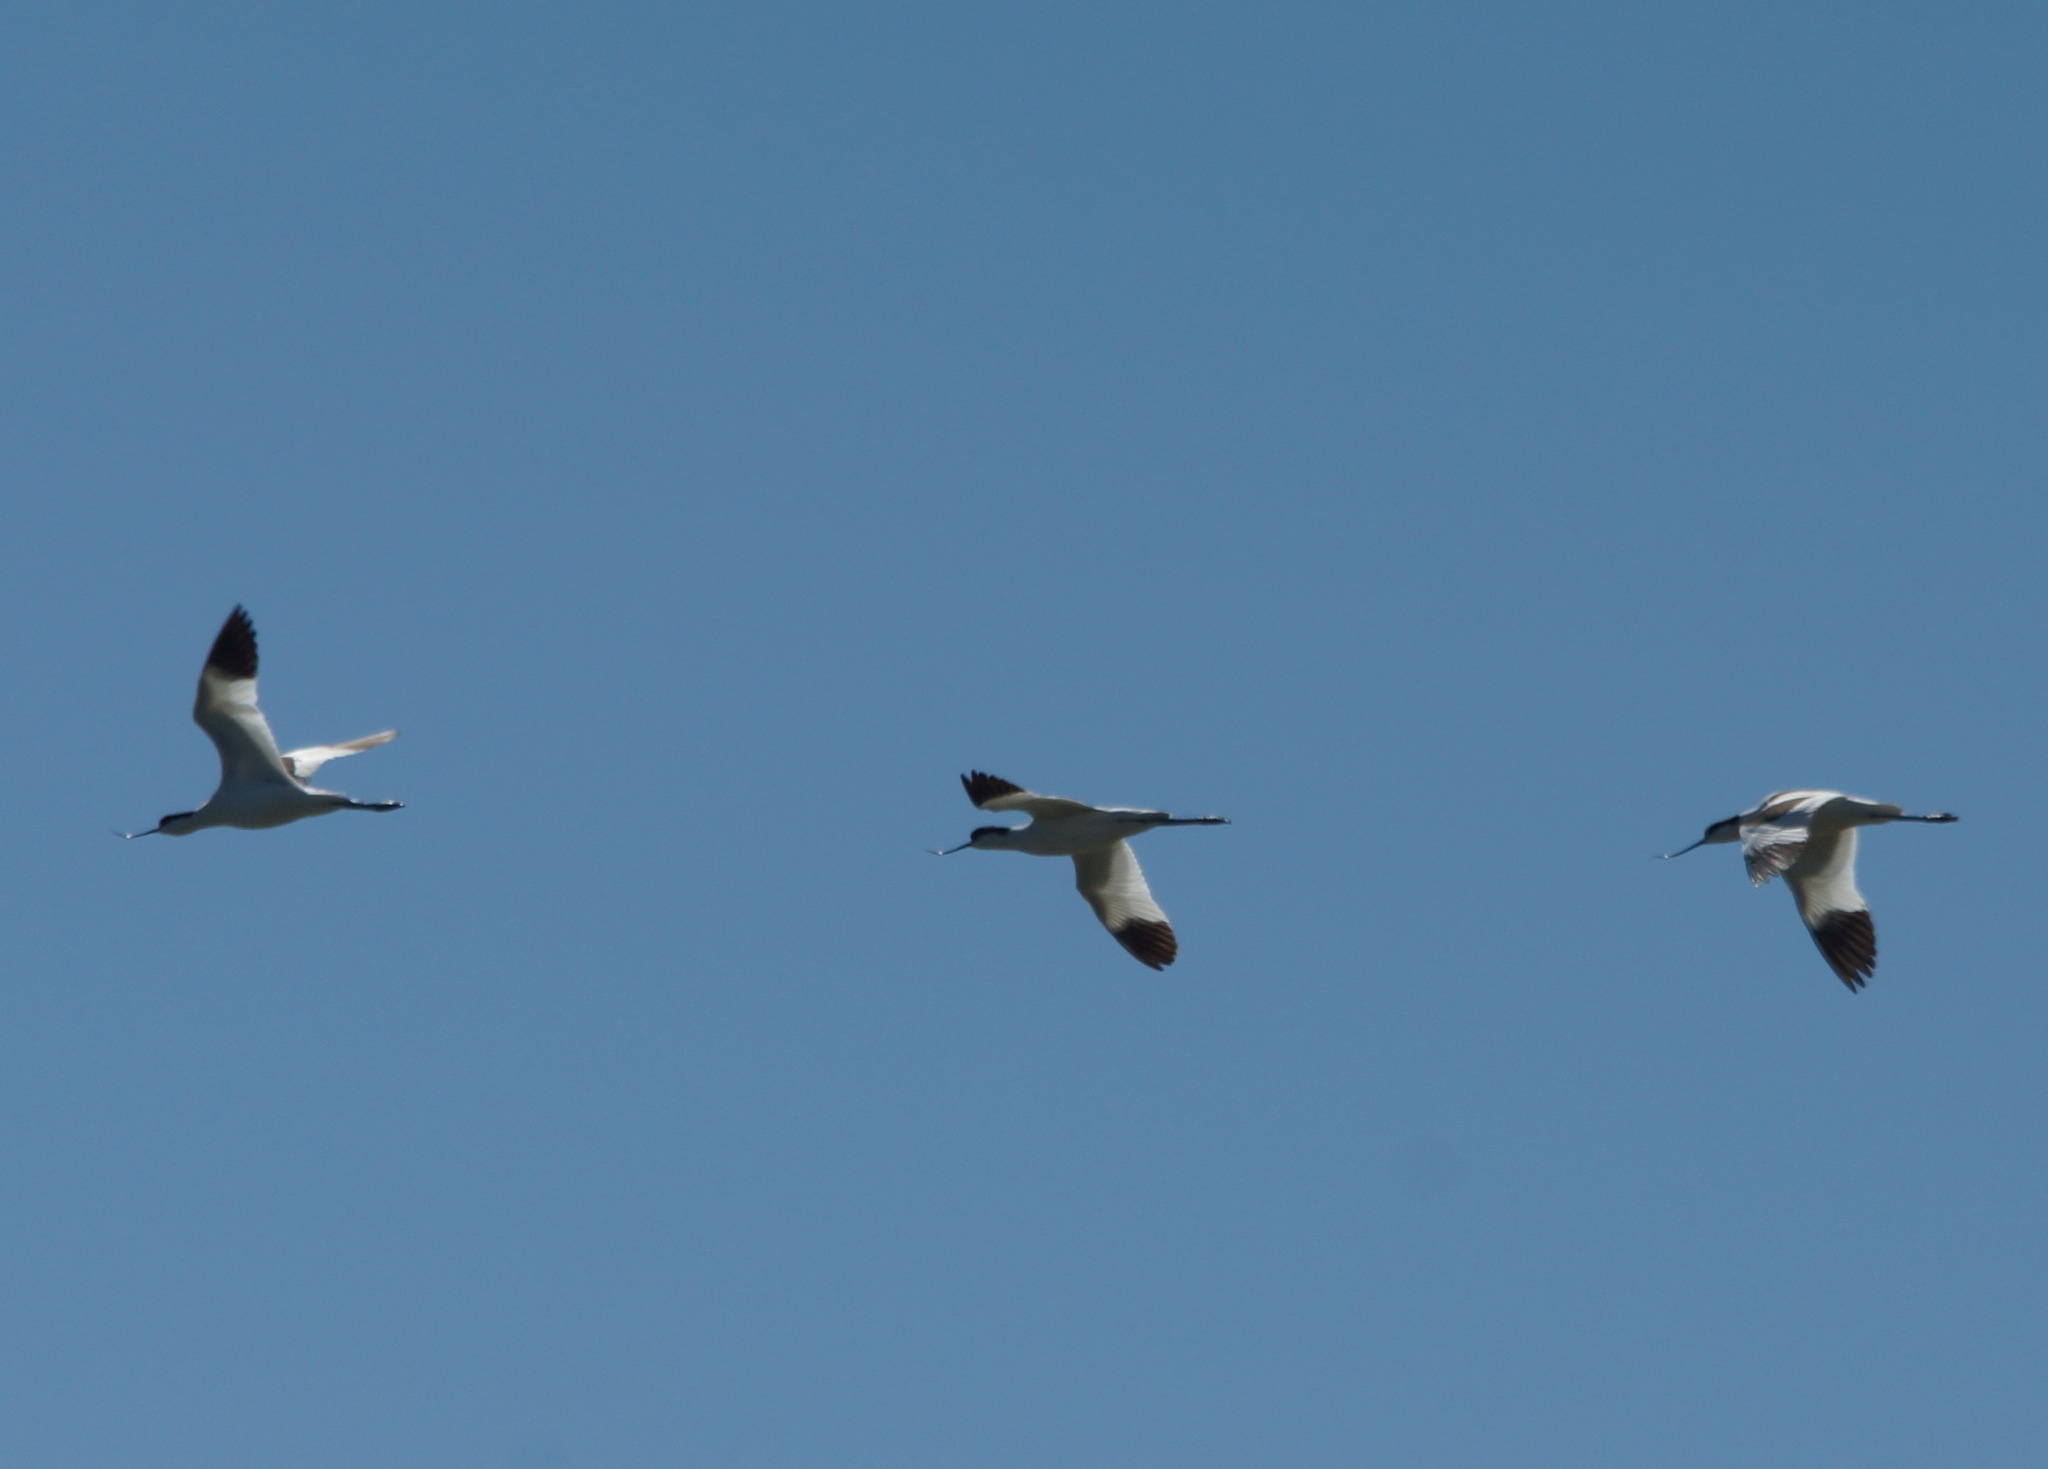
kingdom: Animalia
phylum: Chordata
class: Aves
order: Charadriiformes
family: Recurvirostridae
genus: Recurvirostra
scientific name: Recurvirostra avosetta
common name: Pied avocet
